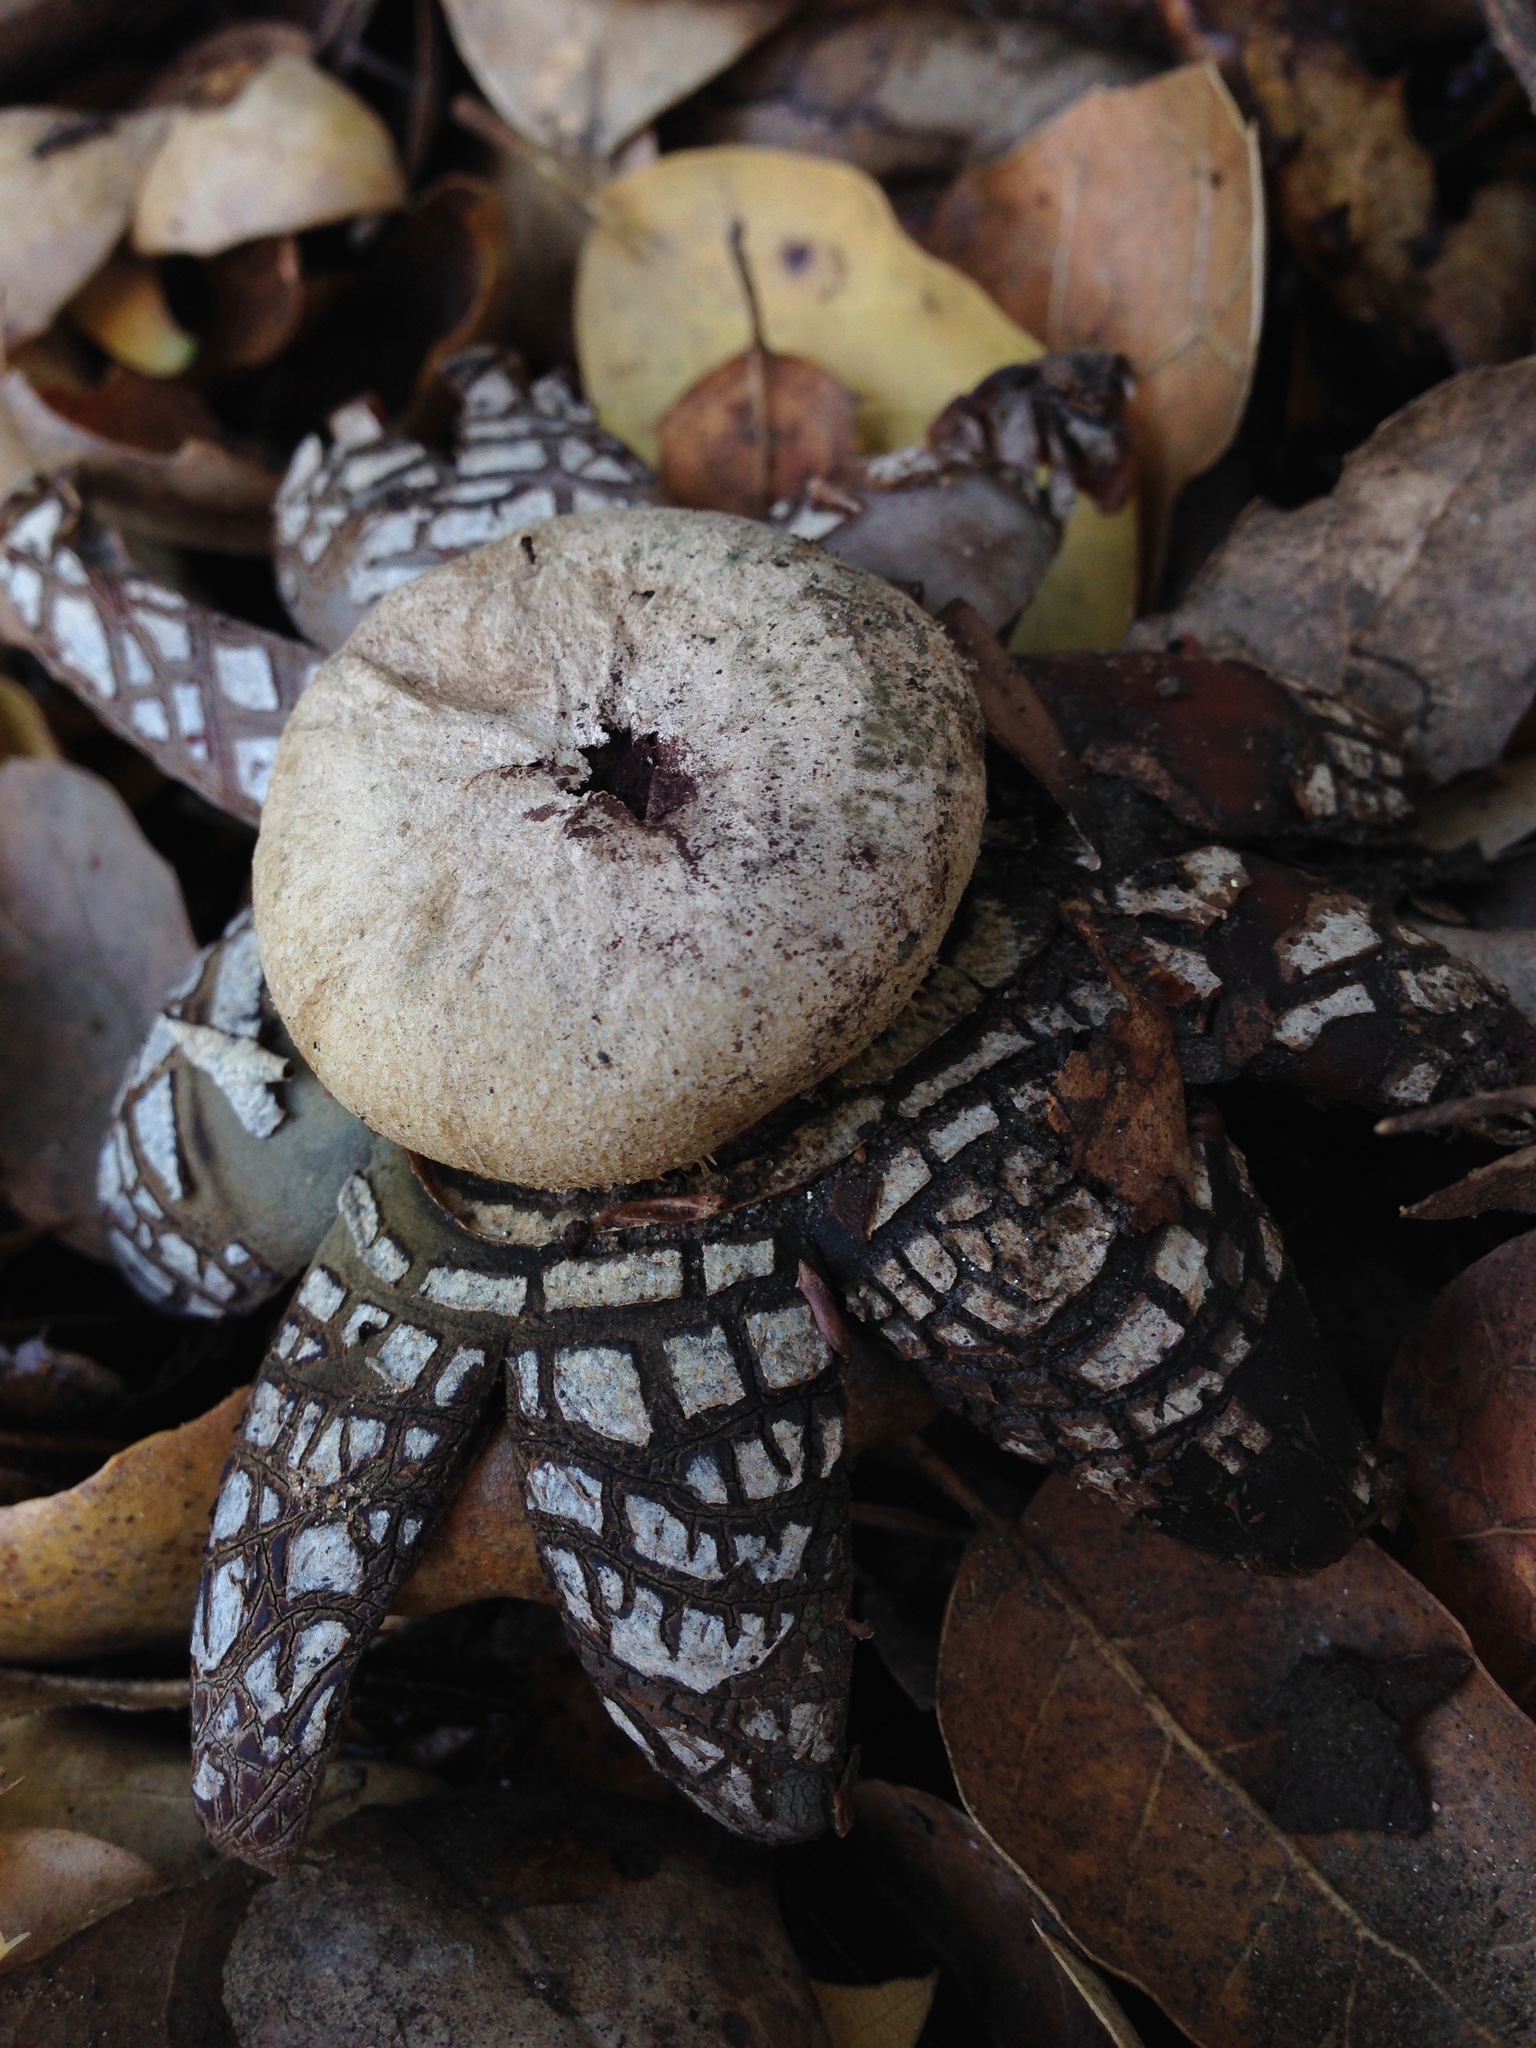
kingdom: Fungi
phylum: Basidiomycota
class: Agaricomycetes
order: Boletales
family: Diplocystidiaceae
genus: Astraeus
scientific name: Astraeus hygrometricus
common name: Barometer earthstar
